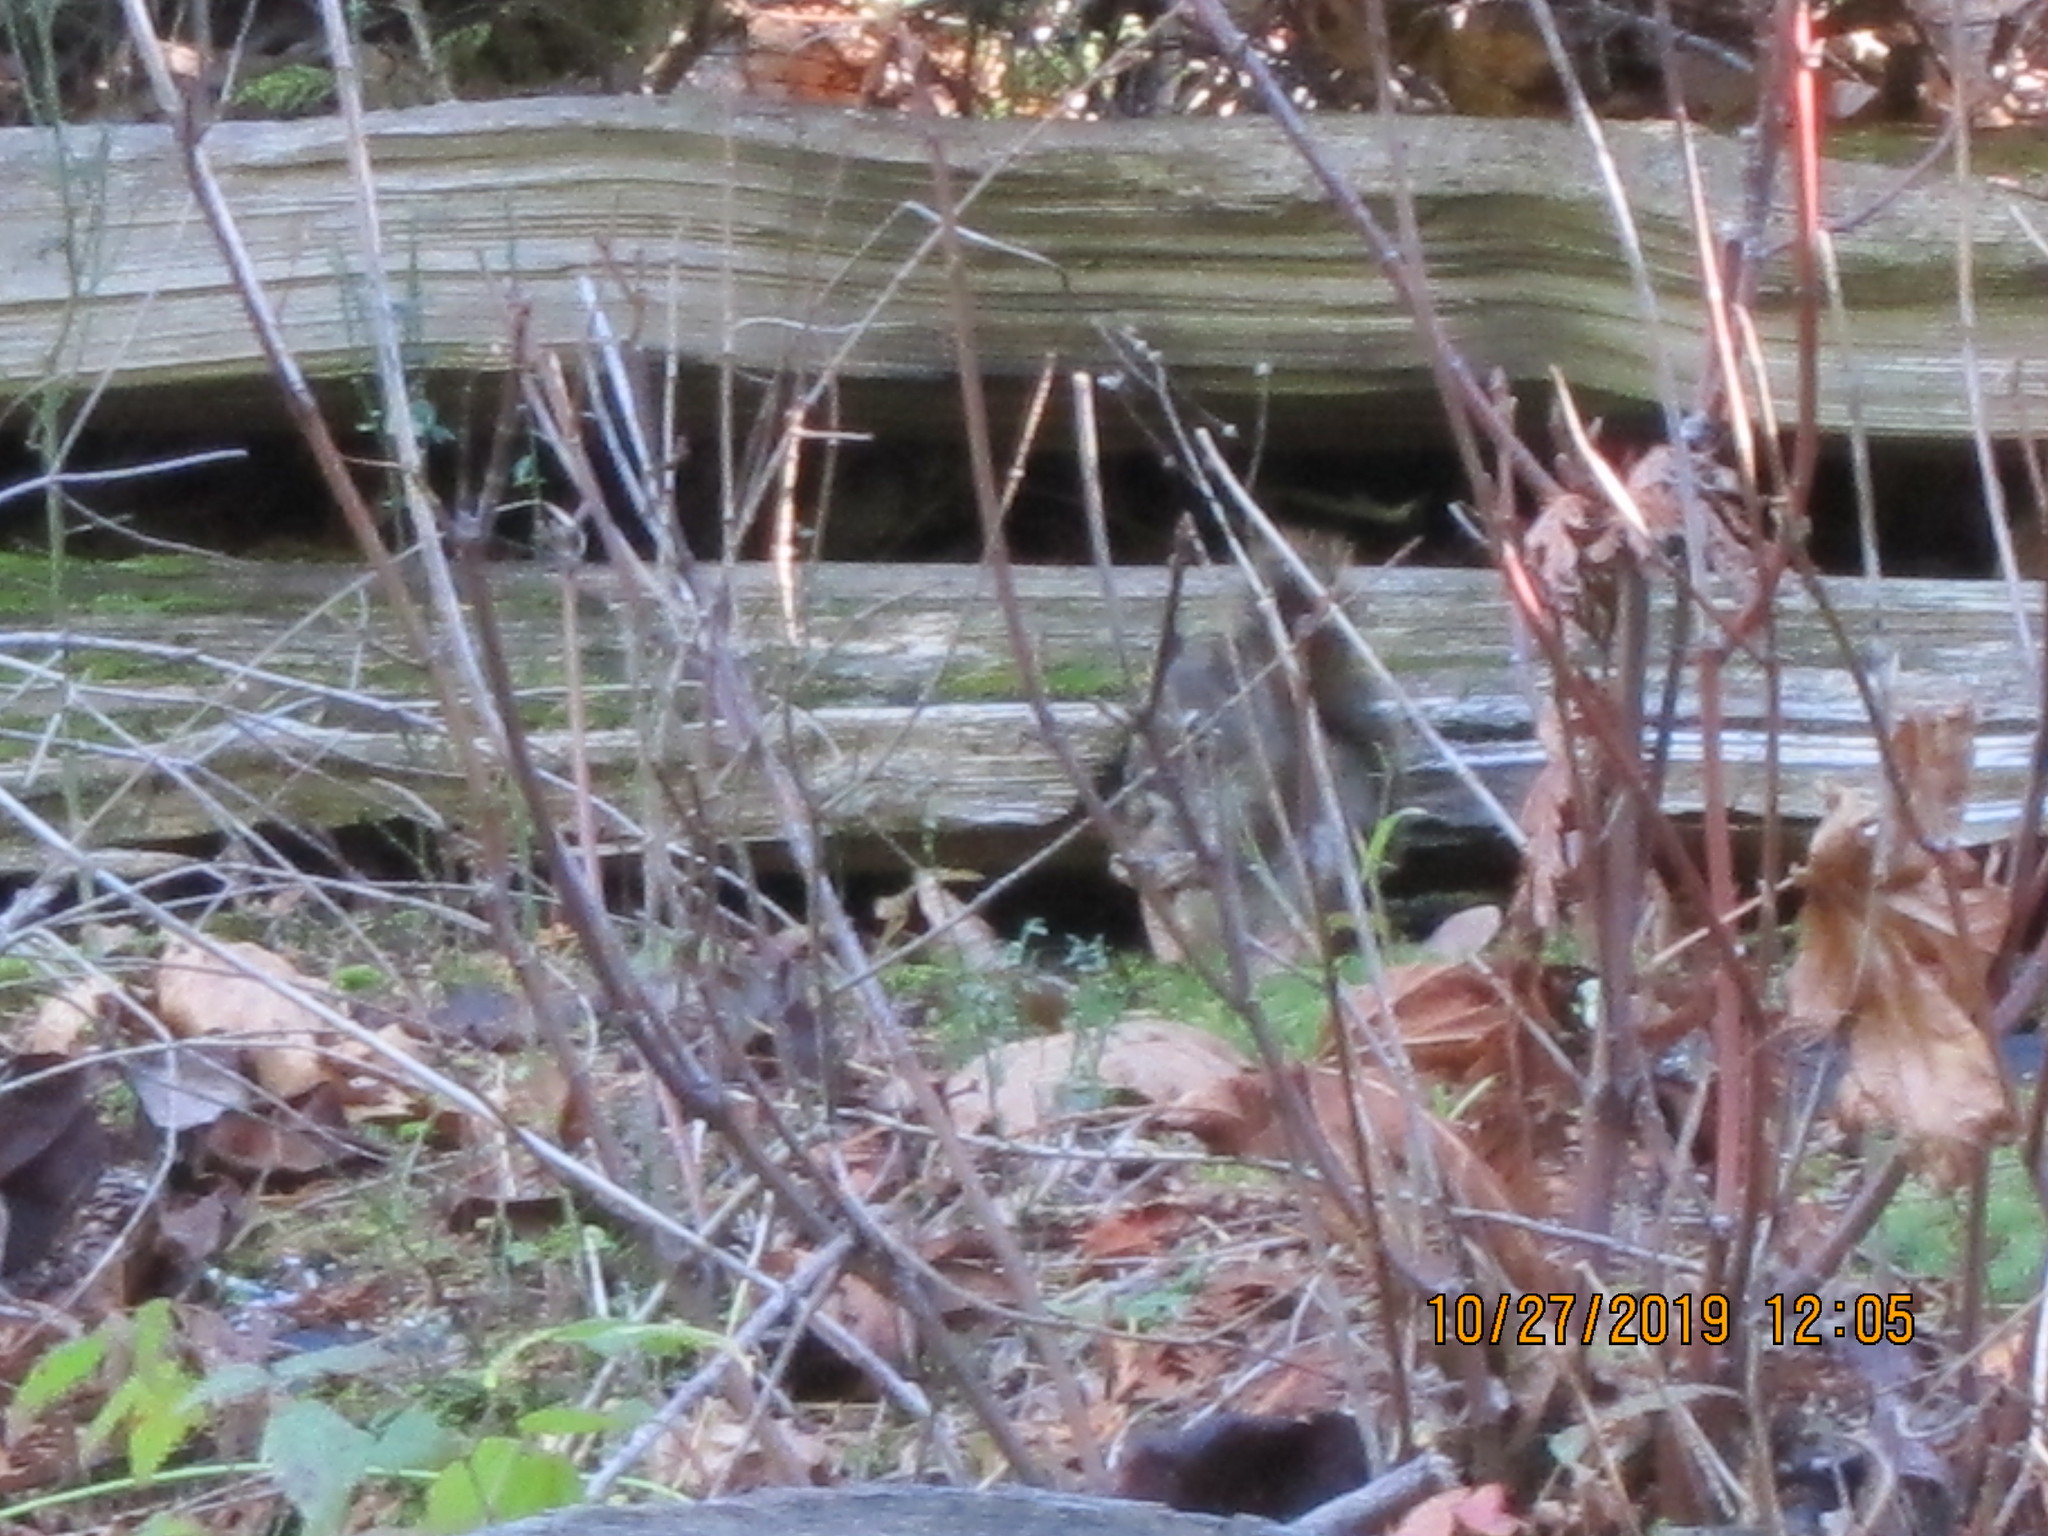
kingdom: Animalia
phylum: Chordata
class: Mammalia
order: Rodentia
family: Sciuridae
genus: Tamiasciurus
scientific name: Tamiasciurus hudsonicus
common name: Red squirrel
